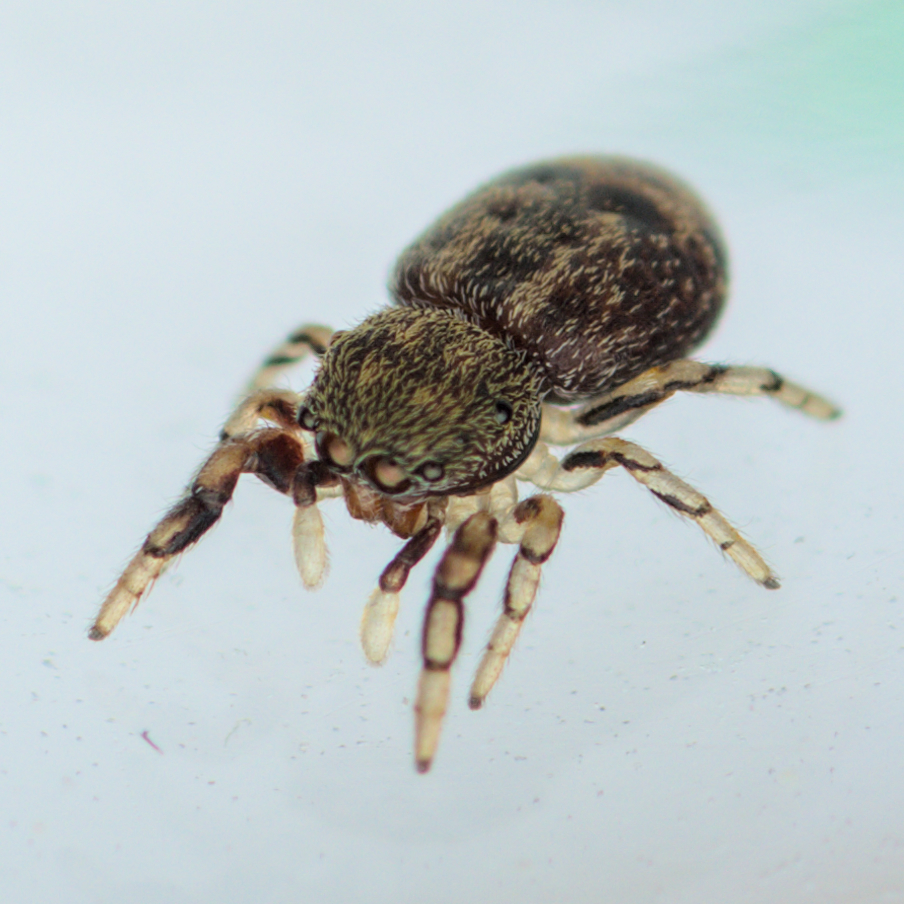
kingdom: Animalia
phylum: Arthropoda
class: Arachnida
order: Araneae
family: Salticidae
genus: Ballus
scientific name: Ballus chalybeius
